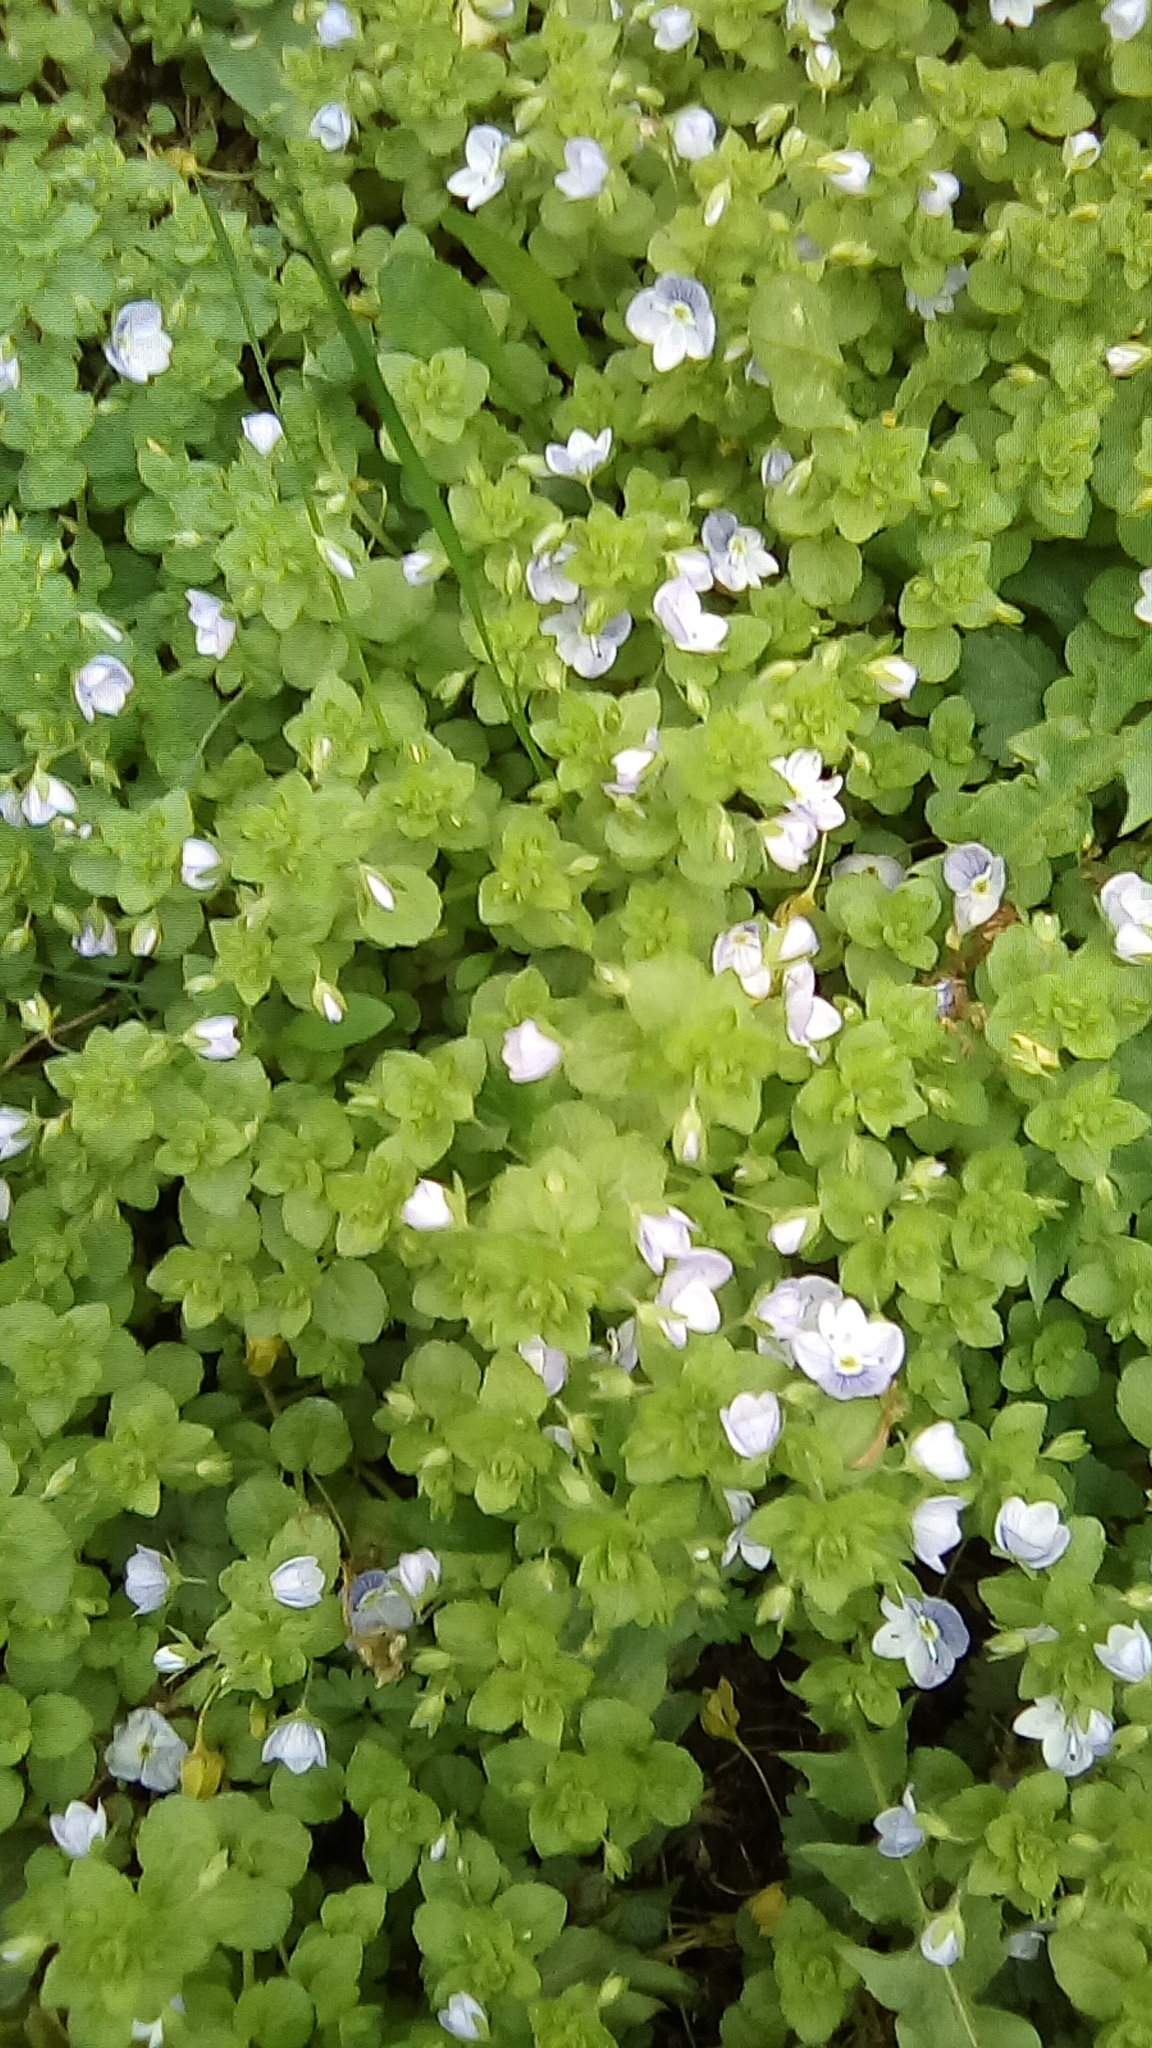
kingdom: Plantae
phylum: Tracheophyta
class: Magnoliopsida
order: Lamiales
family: Plantaginaceae
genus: Veronica
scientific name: Veronica filiformis
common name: Slender speedwell
